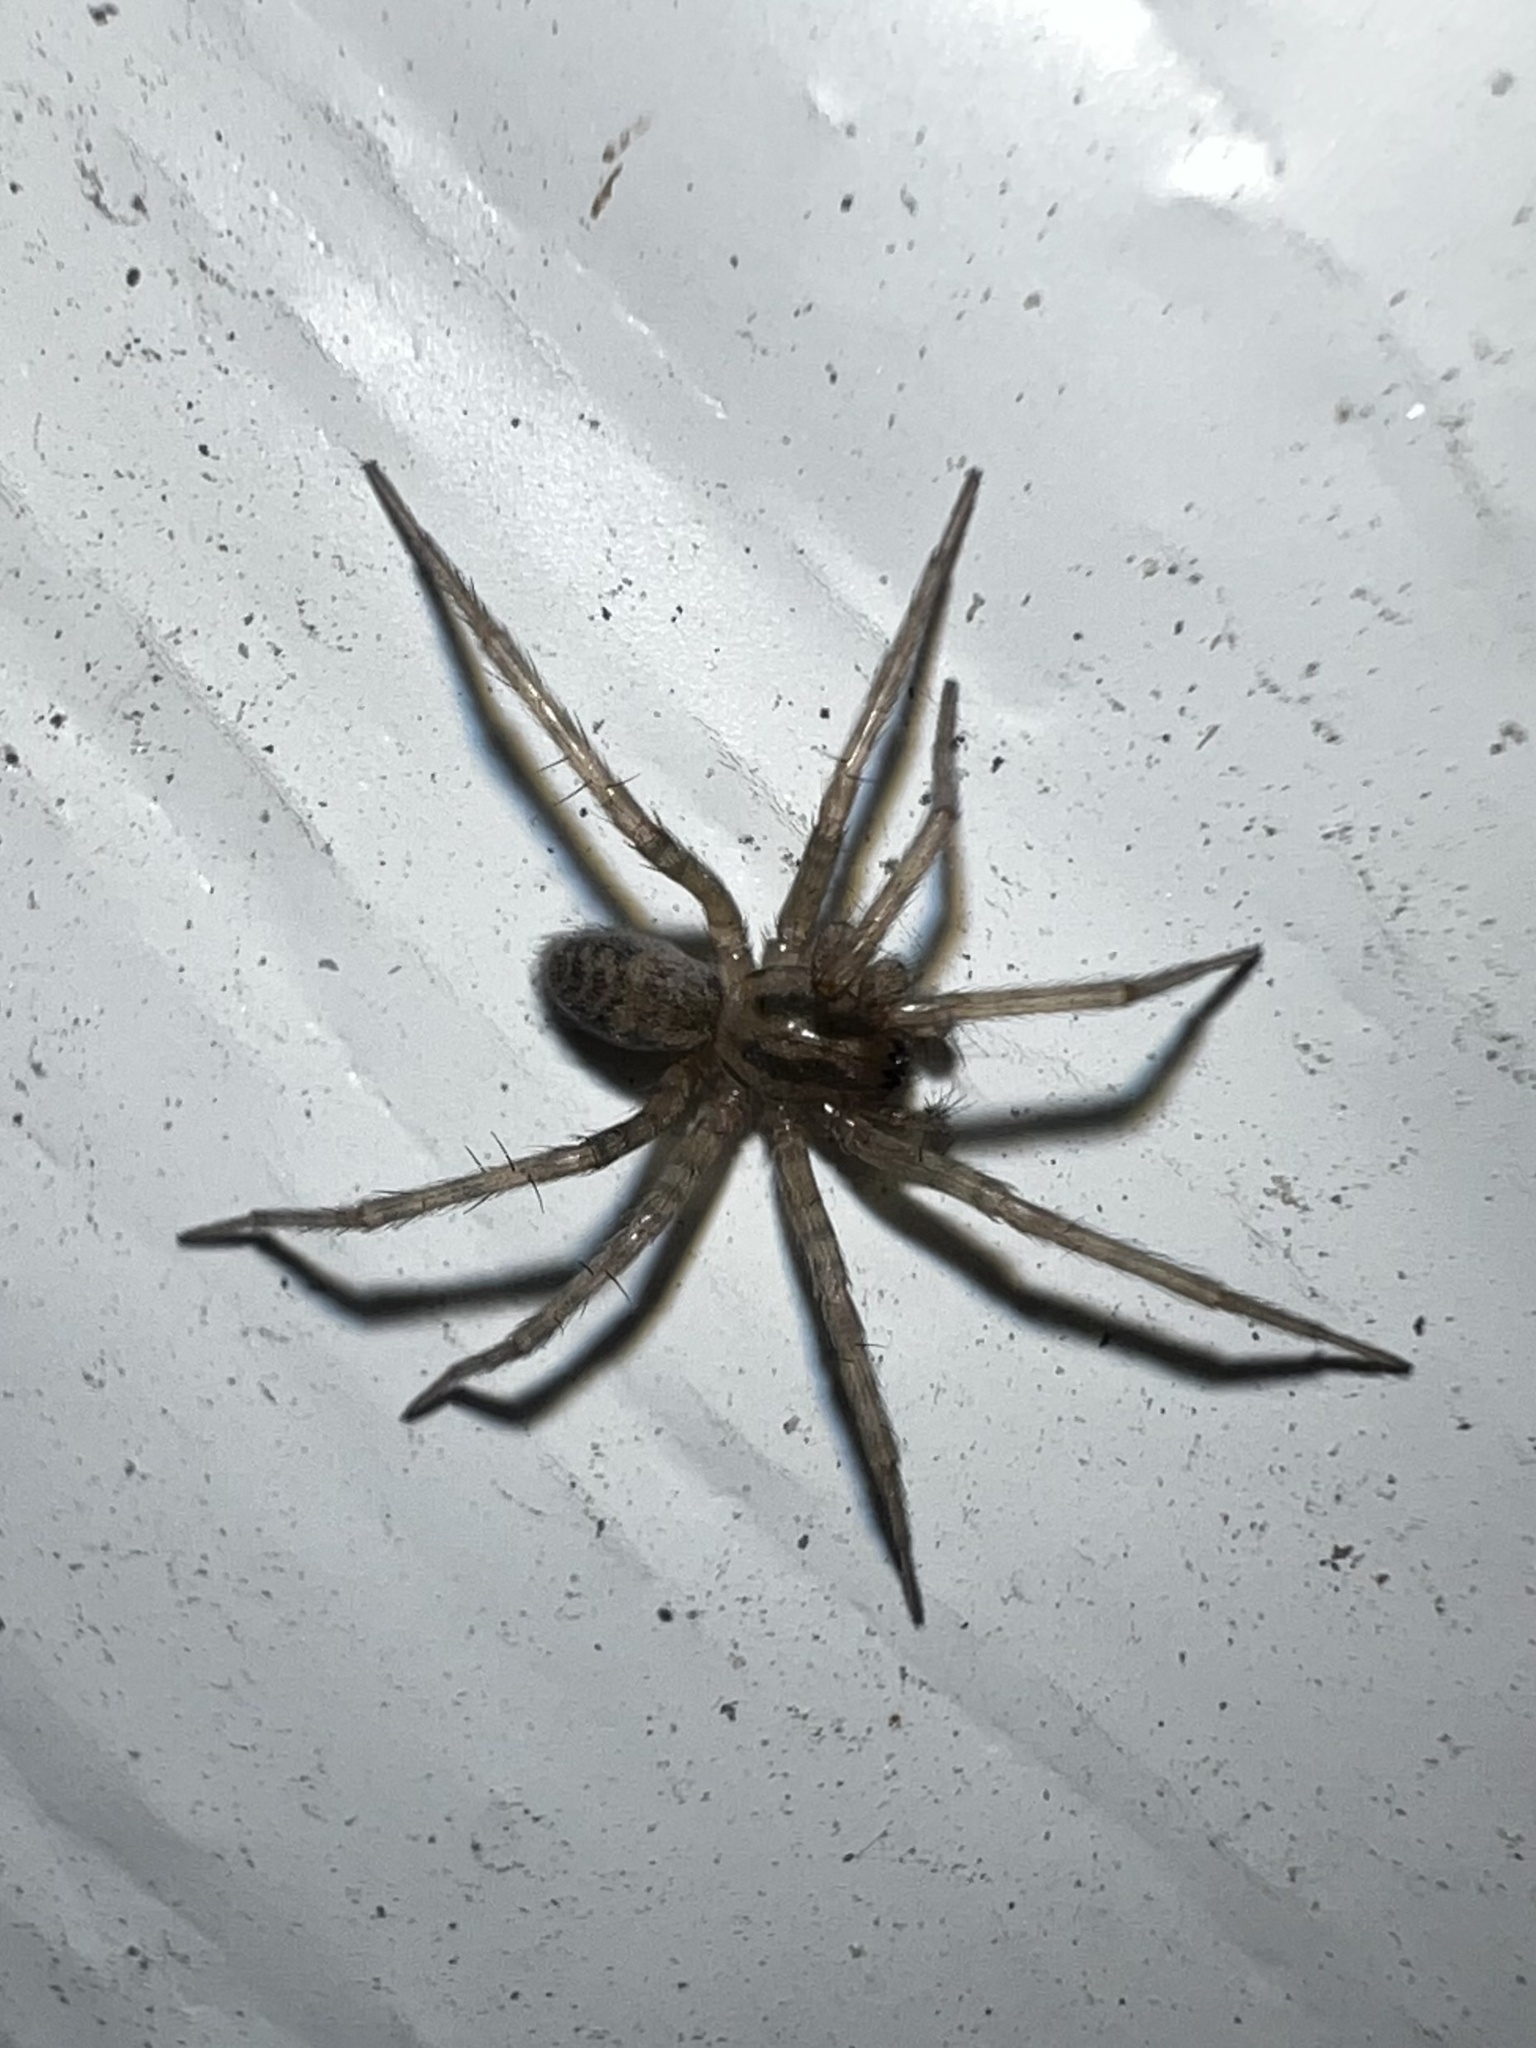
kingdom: Animalia
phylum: Arthropoda
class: Arachnida
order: Araneae
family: Agelenidae
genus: Tegenaria
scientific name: Tegenaria domestica
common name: Barn funnel weaver
